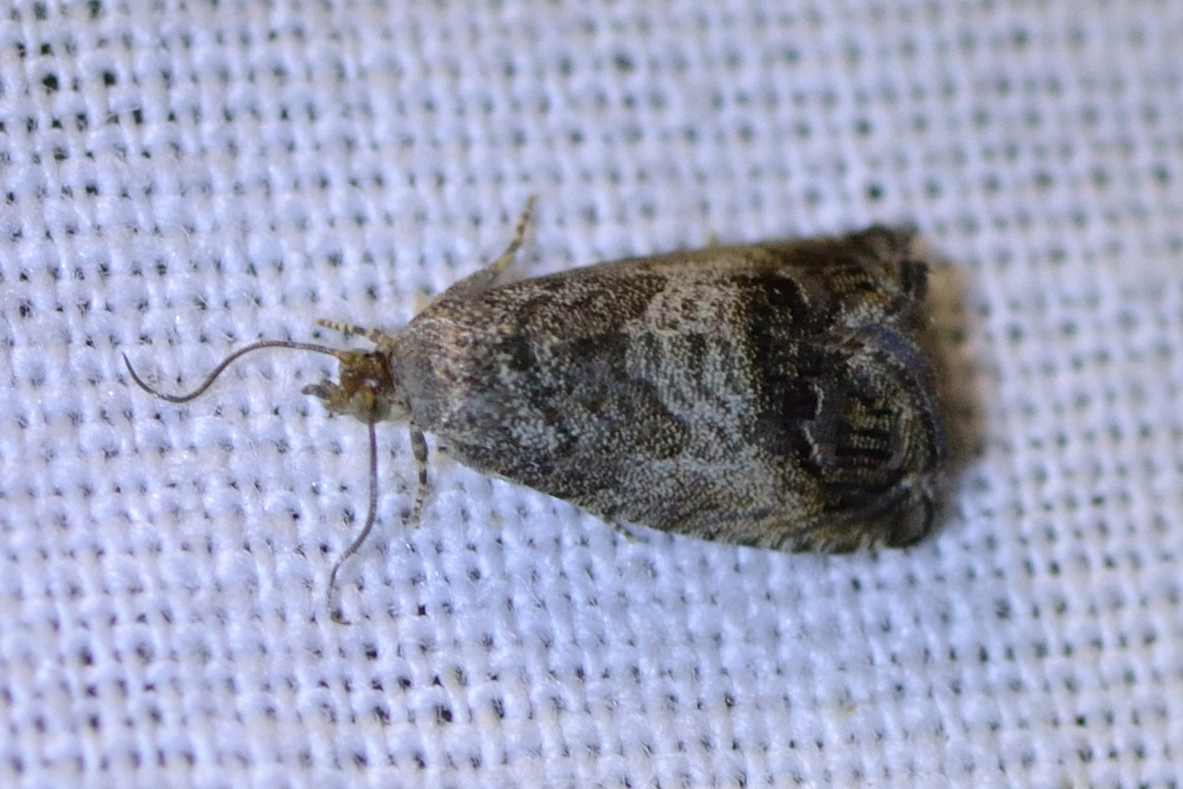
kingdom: Animalia
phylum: Arthropoda
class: Insecta
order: Lepidoptera
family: Tortricidae
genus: Cydia
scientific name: Cydia splendana
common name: De: kastanienwickler, eichenwickler es: oruga de la castaña fr: carpocapse des châtaignes it: cidia o tortrice tardiva delle castagne pt: bichado das castanhas gb: acorn moth, chestnut fruit tortrix
